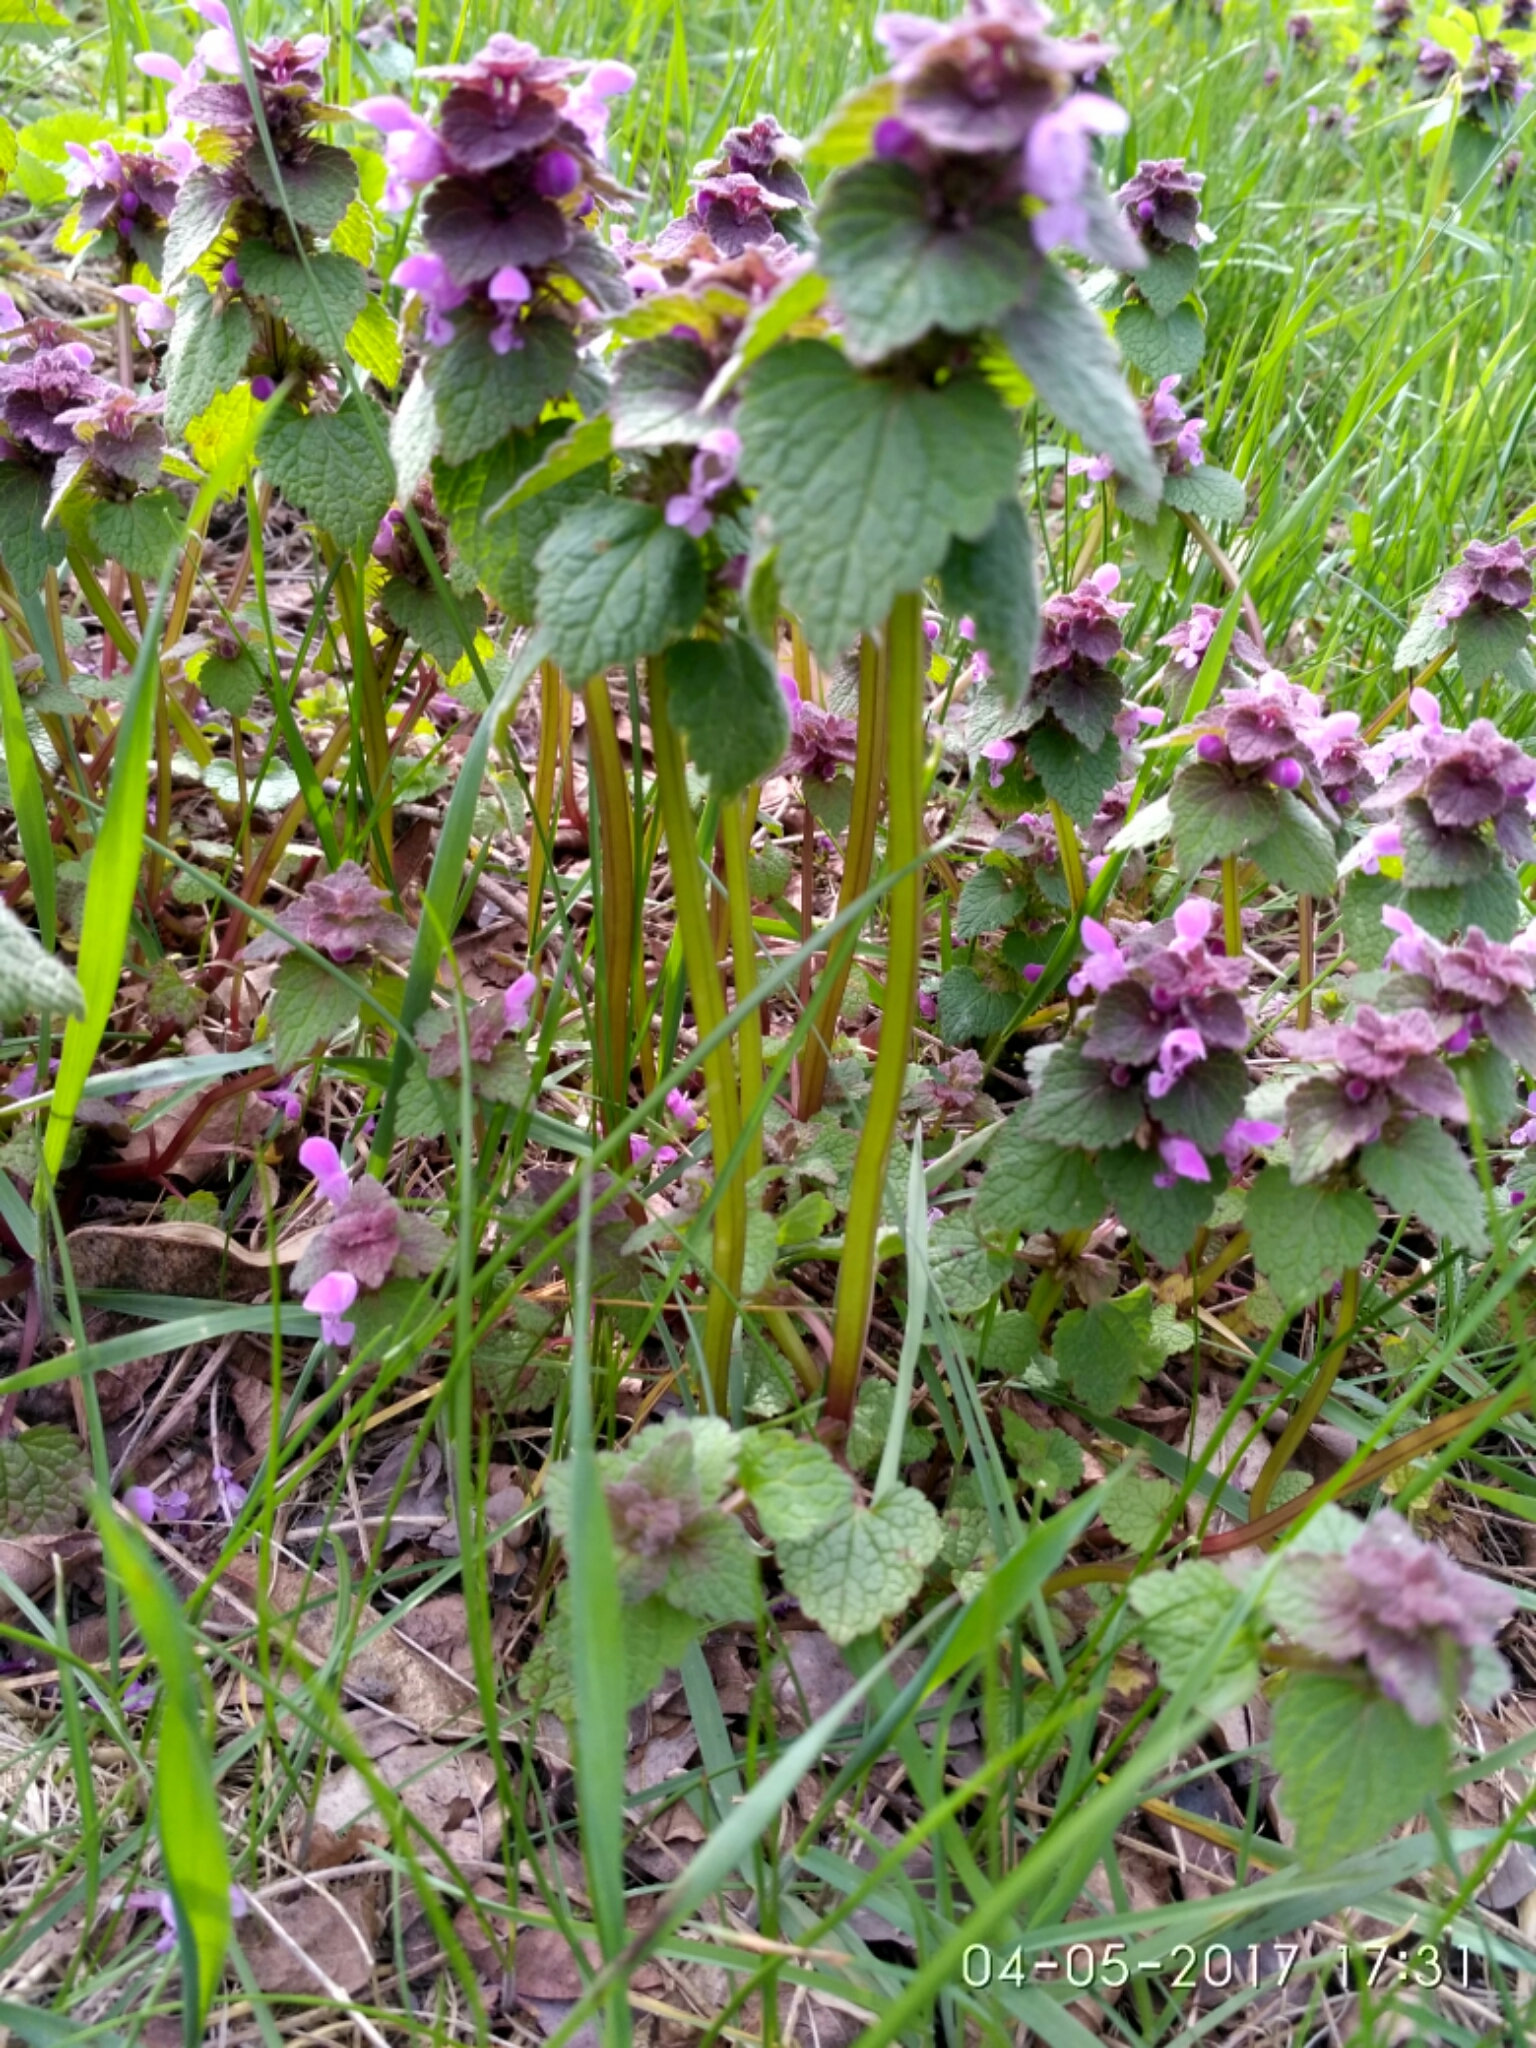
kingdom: Plantae
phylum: Tracheophyta
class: Magnoliopsida
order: Lamiales
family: Lamiaceae
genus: Lamium
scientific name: Lamium purpureum
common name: Red dead-nettle
